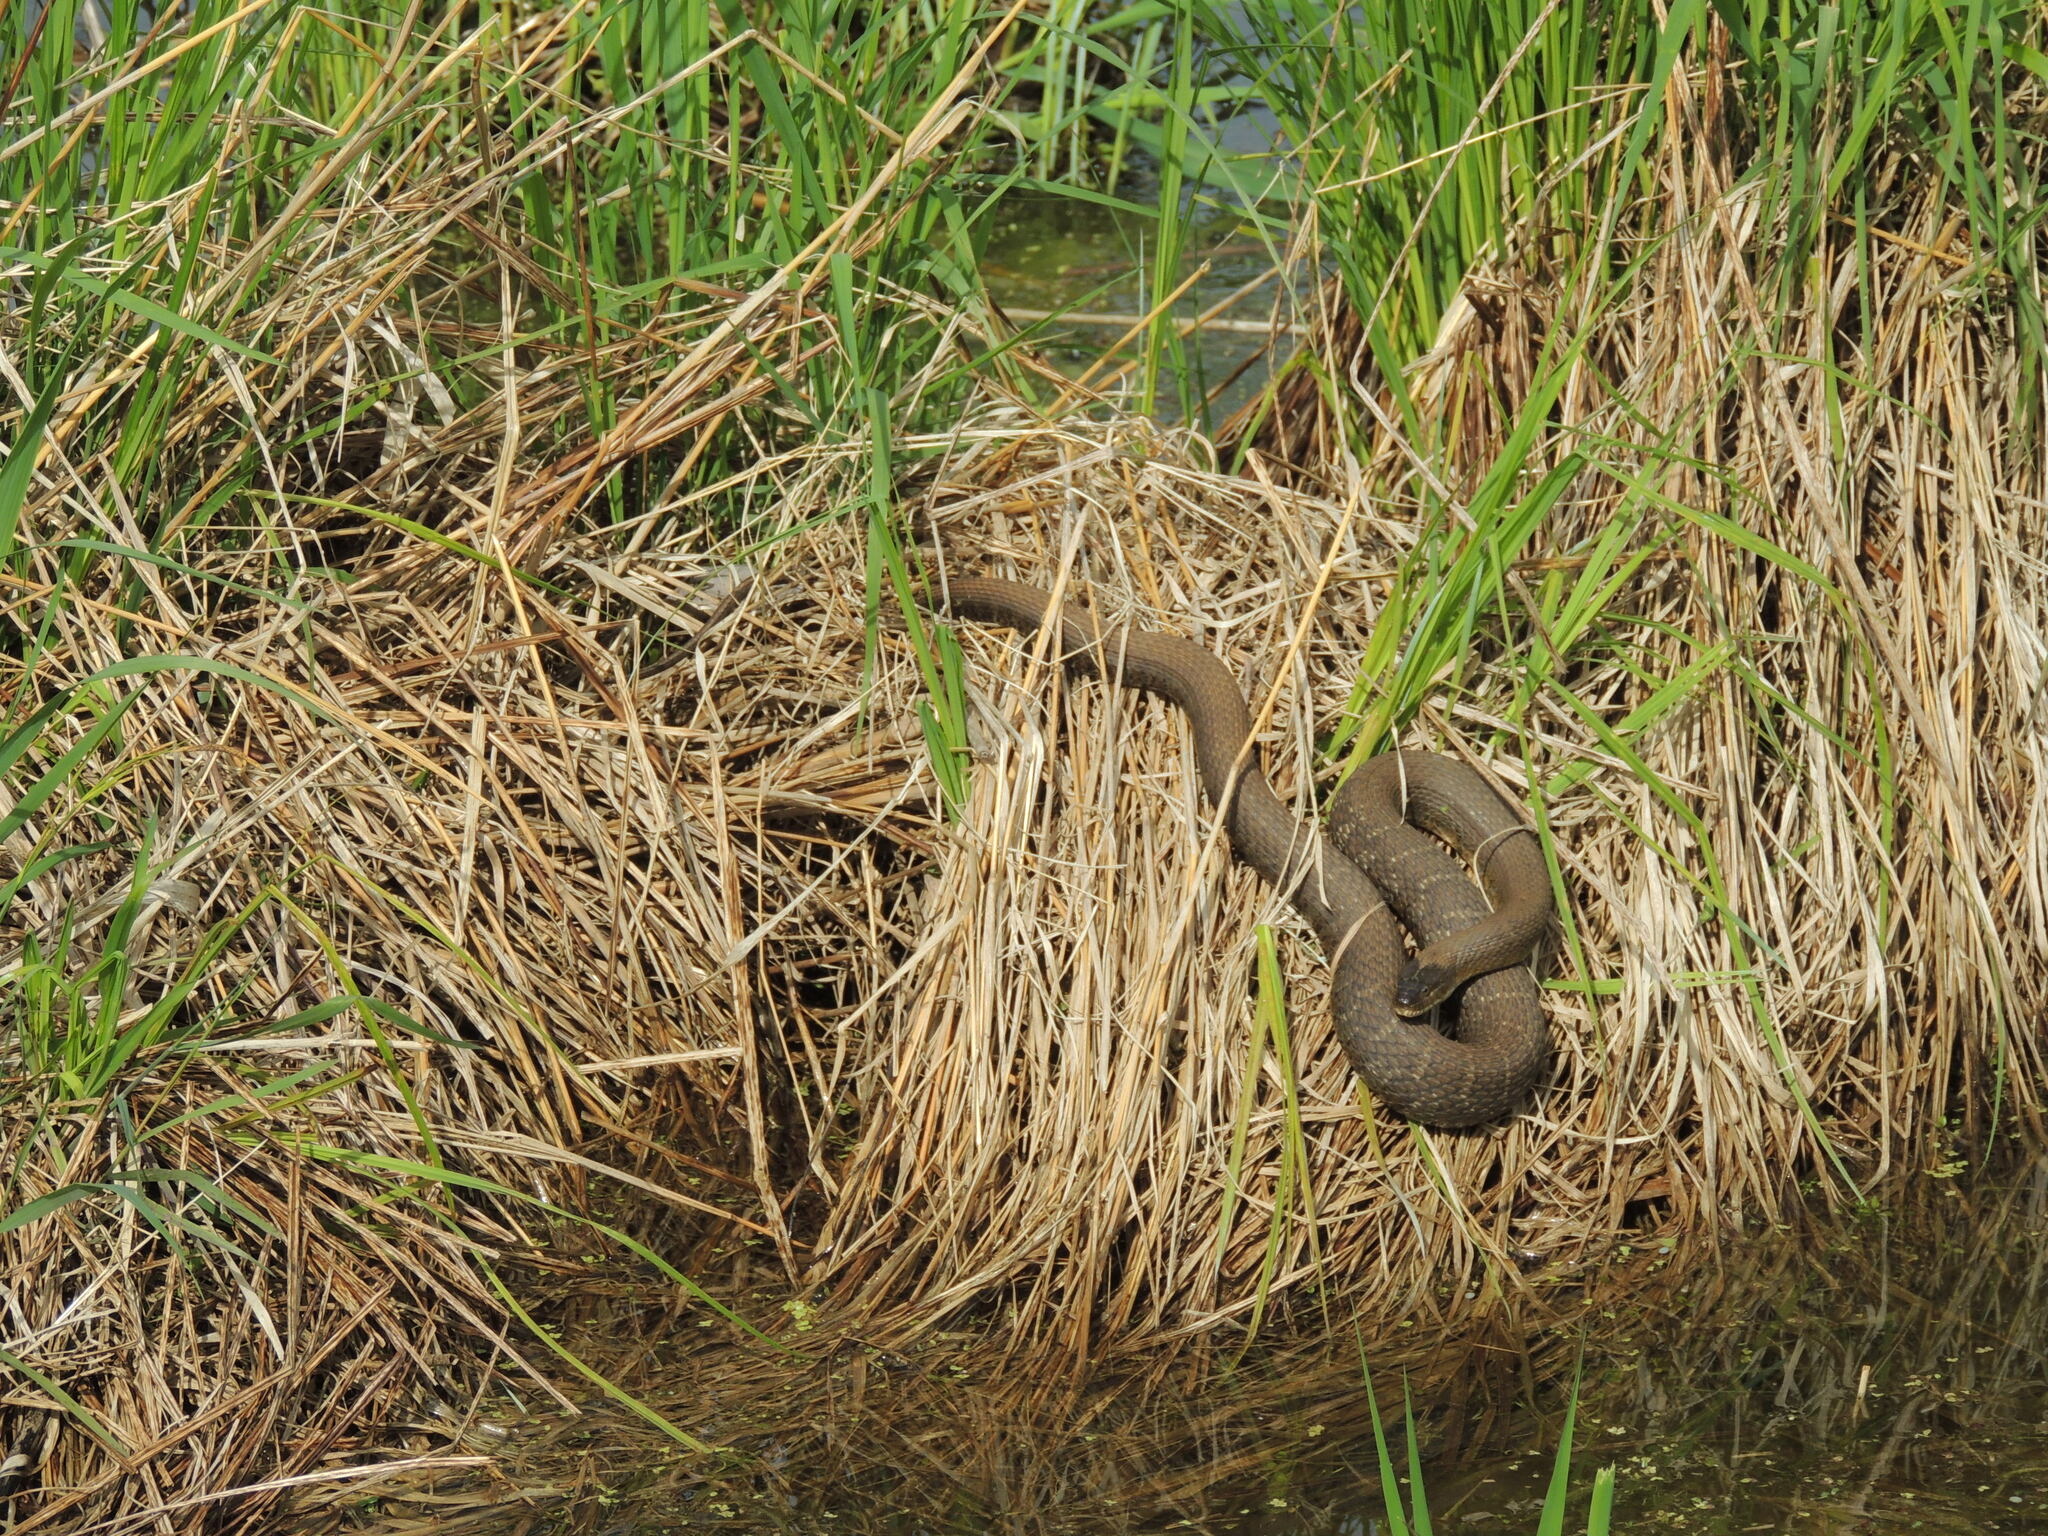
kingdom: Animalia
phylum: Chordata
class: Squamata
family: Colubridae
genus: Nerodia
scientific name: Nerodia sipedon
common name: Northern water snake
